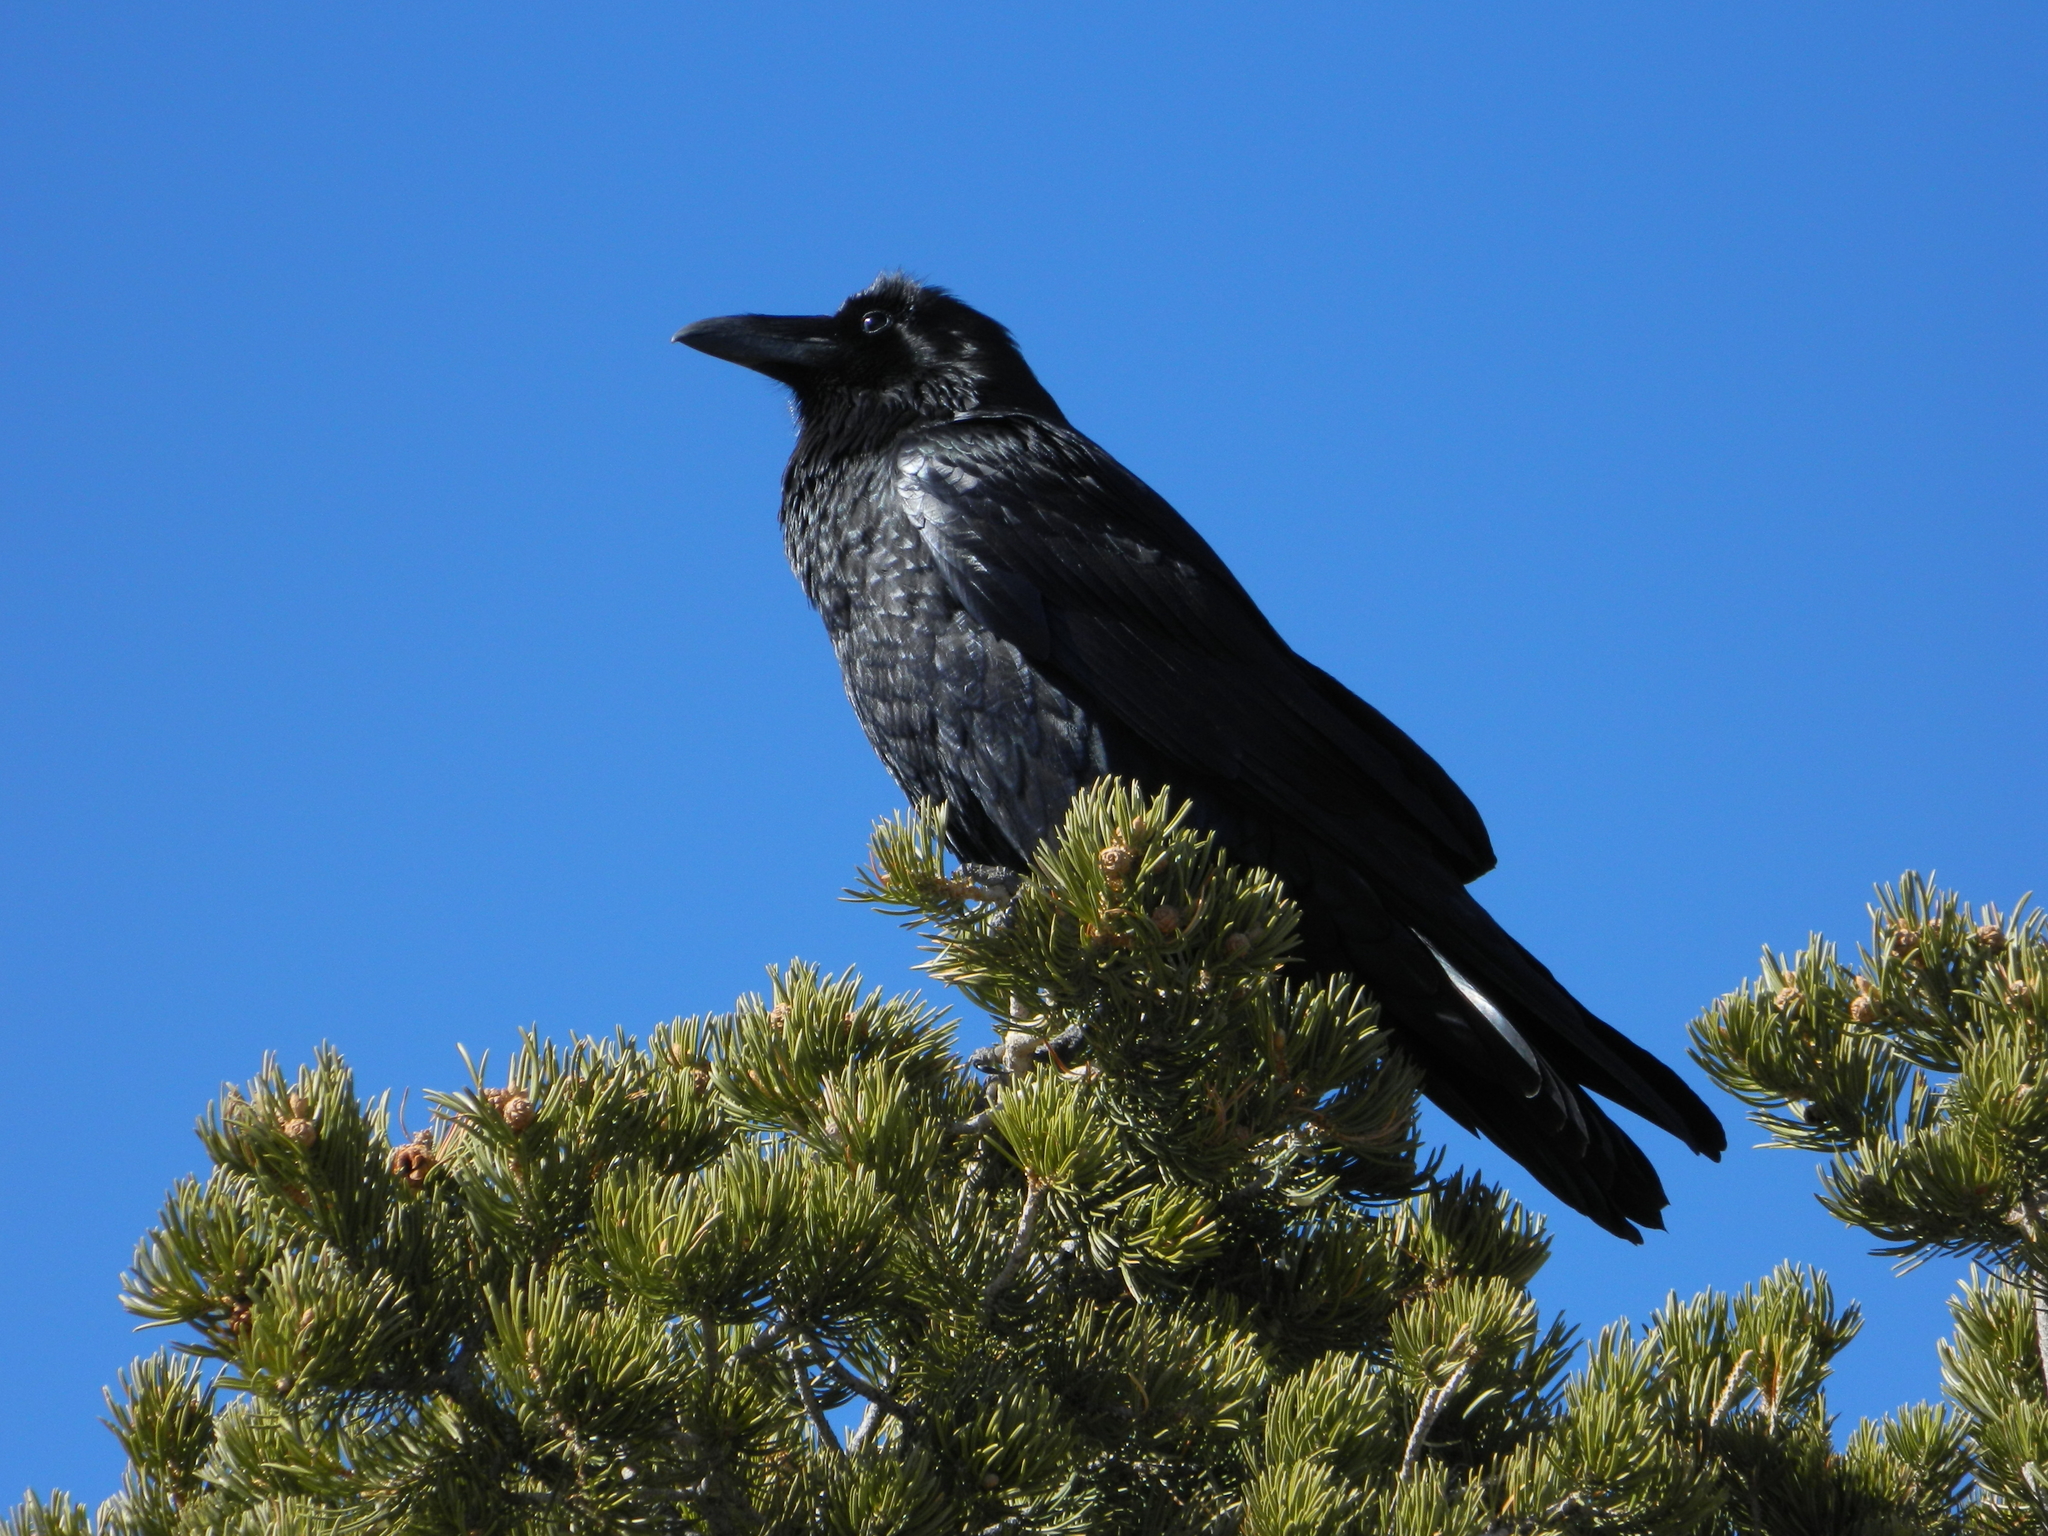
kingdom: Animalia
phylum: Chordata
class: Aves
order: Passeriformes
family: Corvidae
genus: Corvus
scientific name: Corvus corax
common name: Common raven
